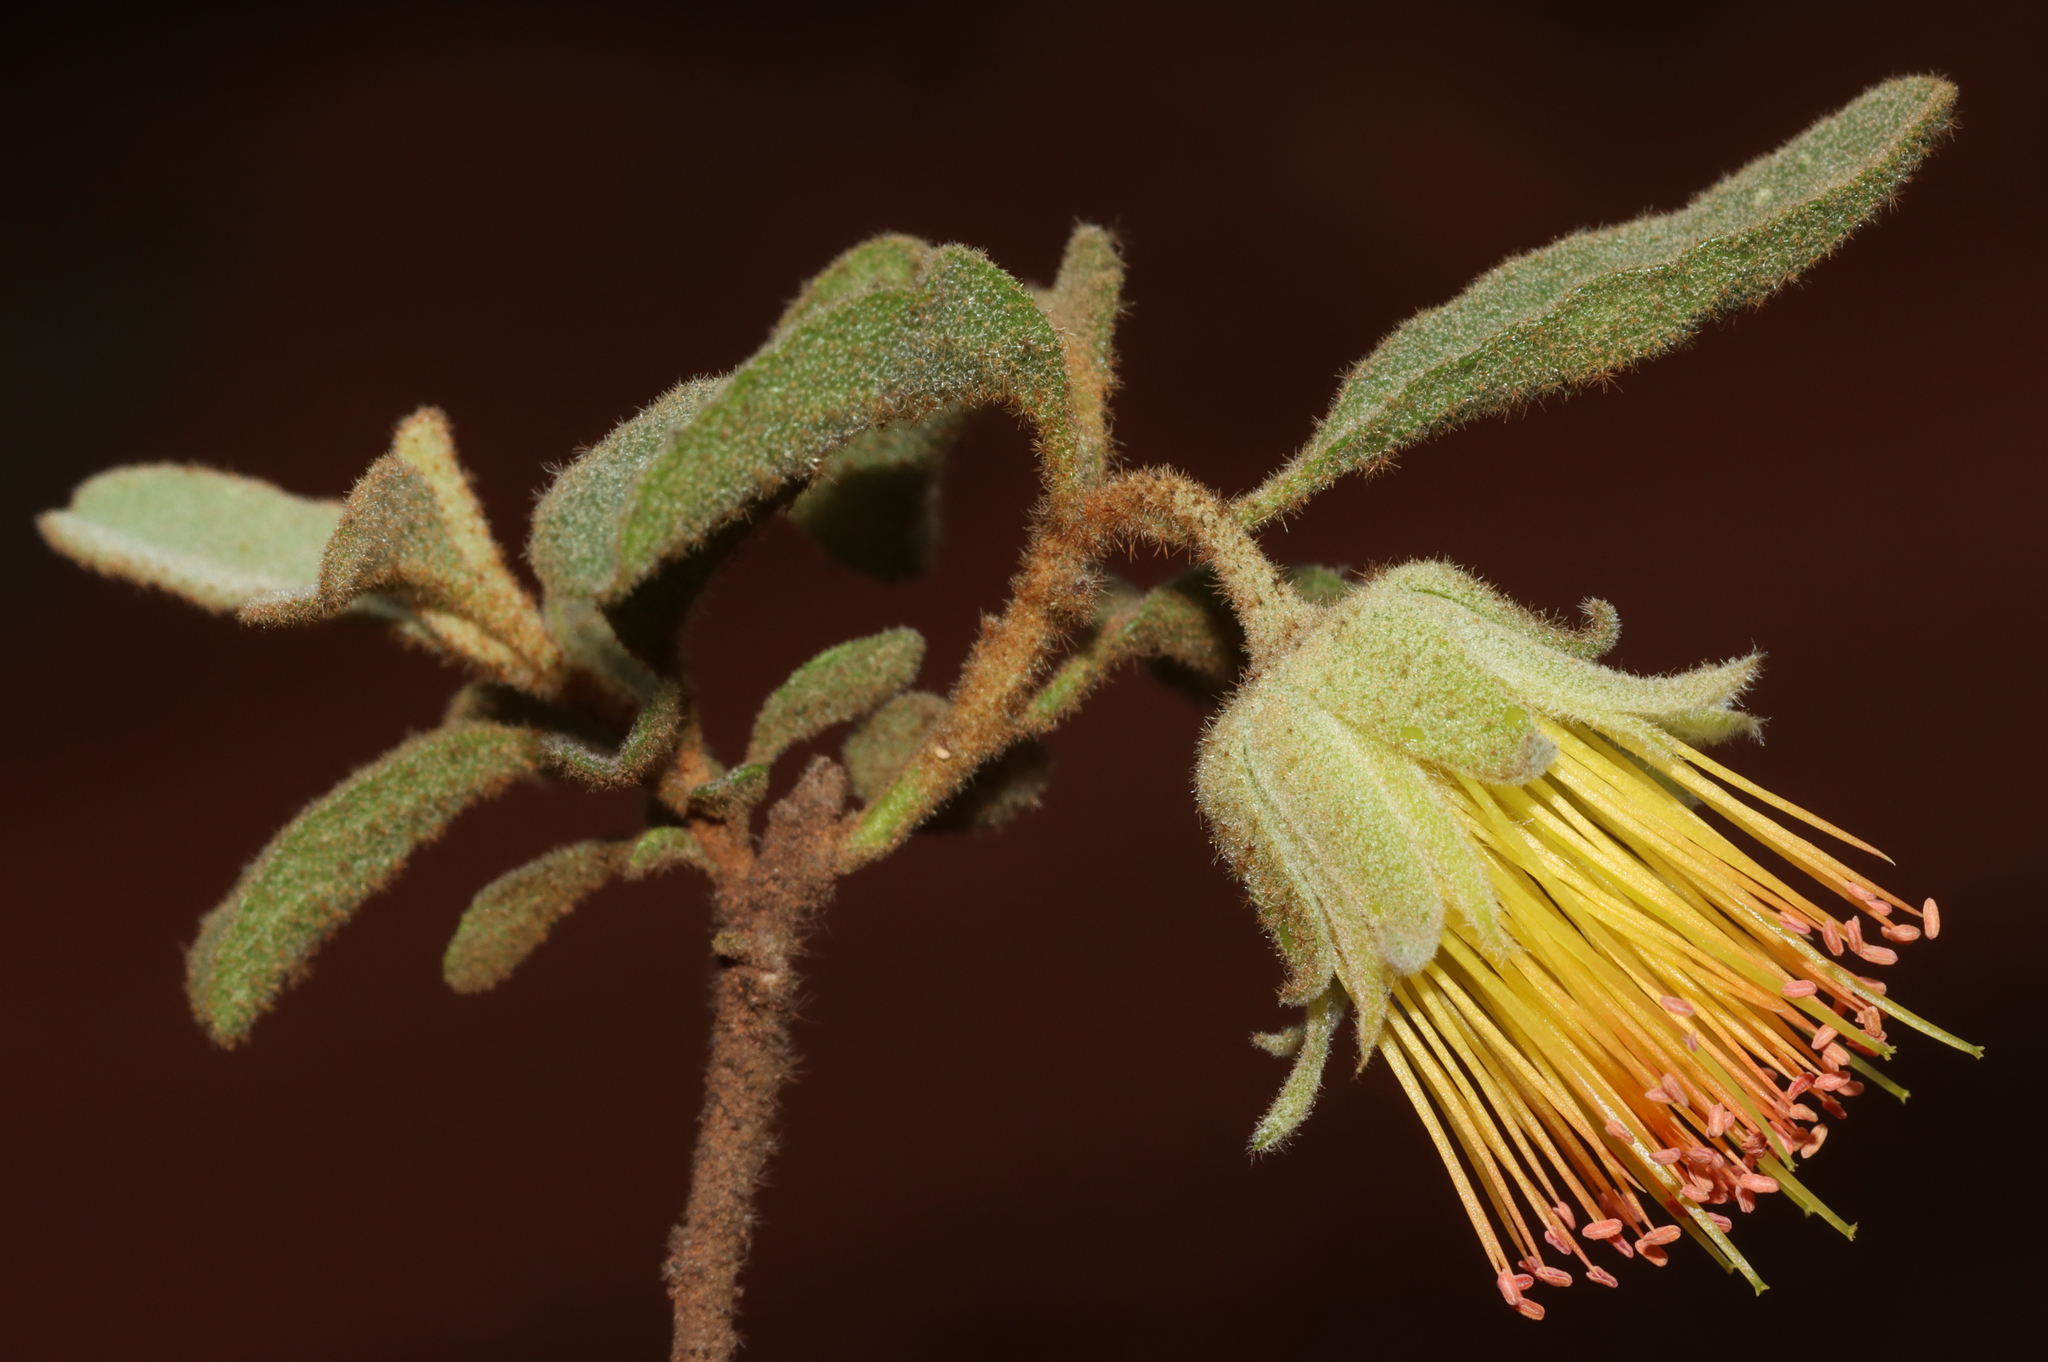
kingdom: Plantae
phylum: Tracheophyta
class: Magnoliopsida
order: Sapindales
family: Rutaceae
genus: Diplolaena
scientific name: Diplolaena microcephala
